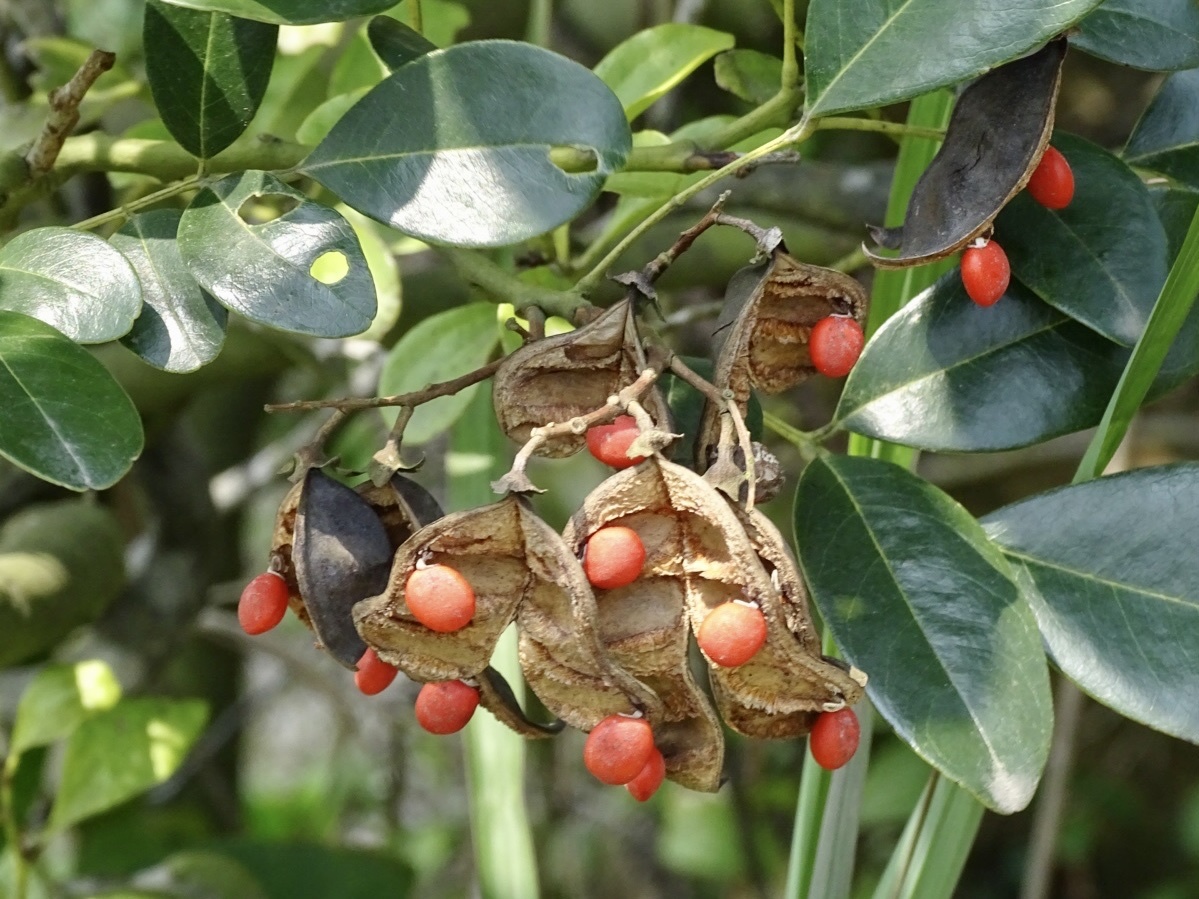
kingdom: Plantae
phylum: Tracheophyta
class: Magnoliopsida
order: Fabales
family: Fabaceae
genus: Ormosia
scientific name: Ormosia emarginata
